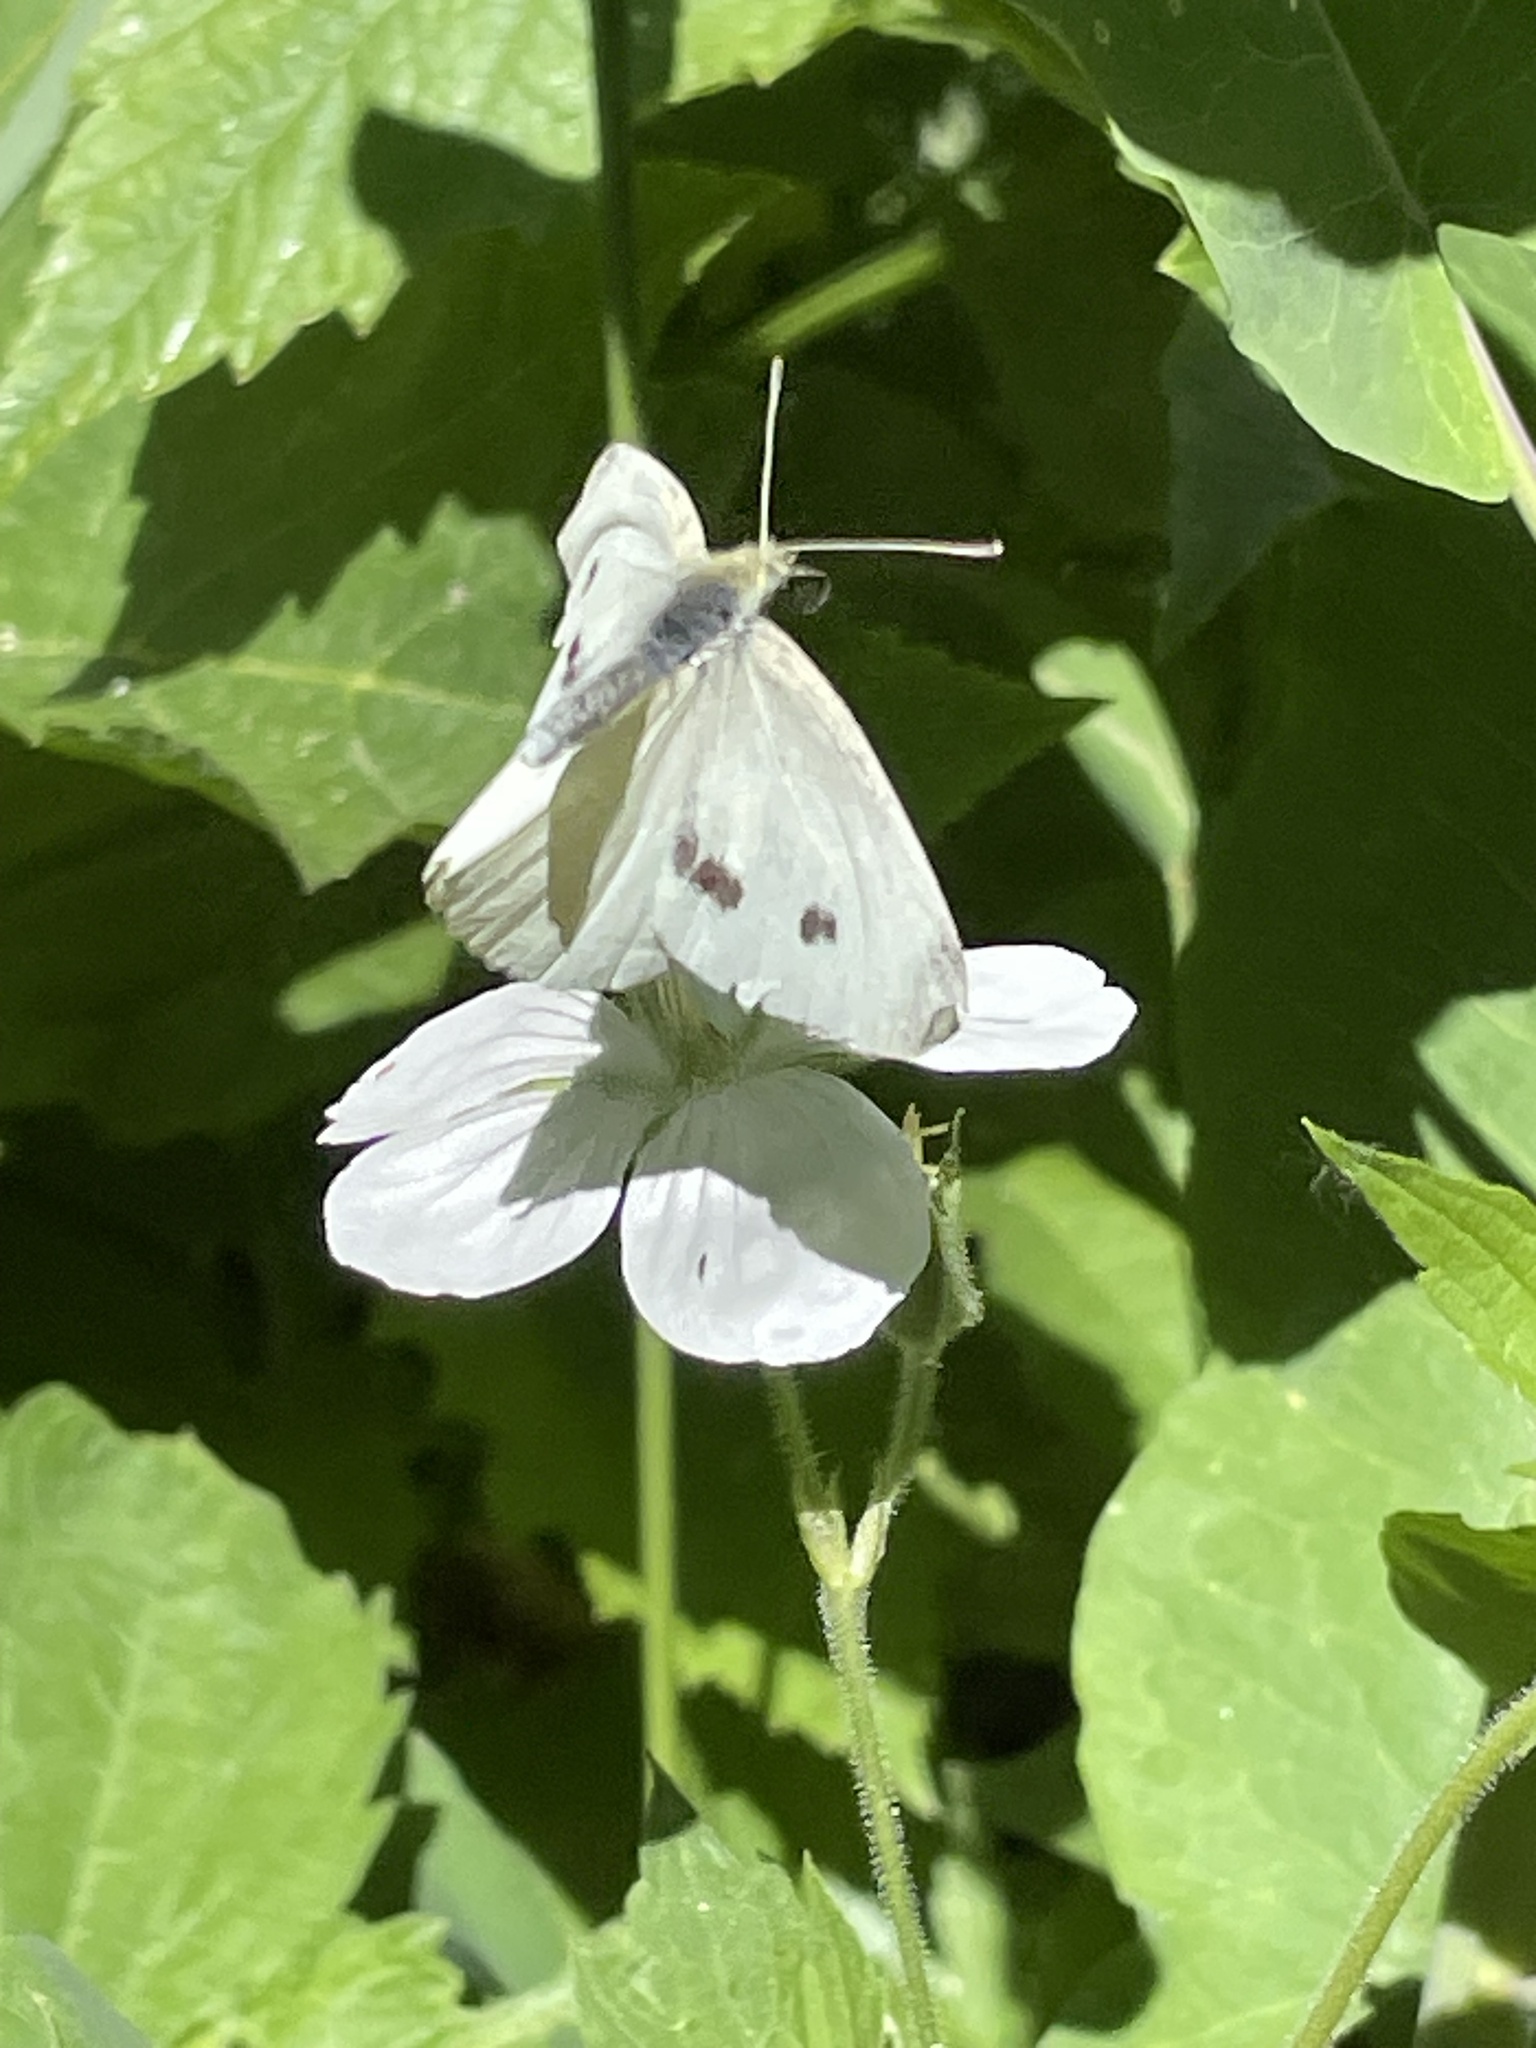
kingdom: Animalia
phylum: Arthropoda
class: Insecta
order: Lepidoptera
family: Pieridae
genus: Pieris
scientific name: Pieris rapae
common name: Small white
